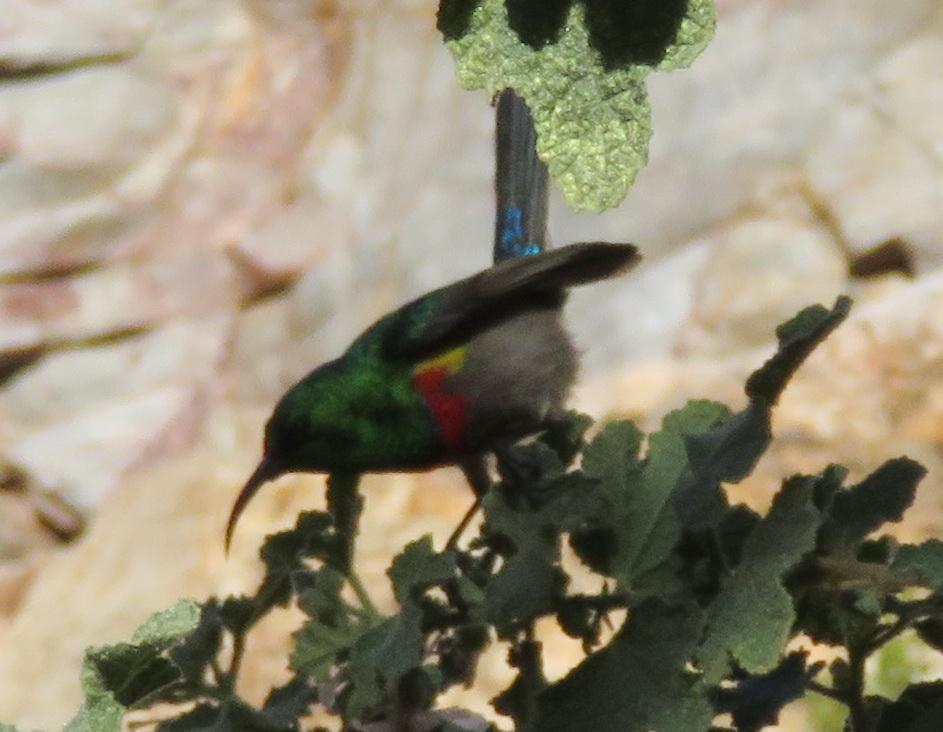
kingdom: Animalia
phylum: Chordata
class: Aves
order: Passeriformes
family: Nectariniidae
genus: Cinnyris
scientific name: Cinnyris chalybeus
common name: Southern double-collared sunbird
